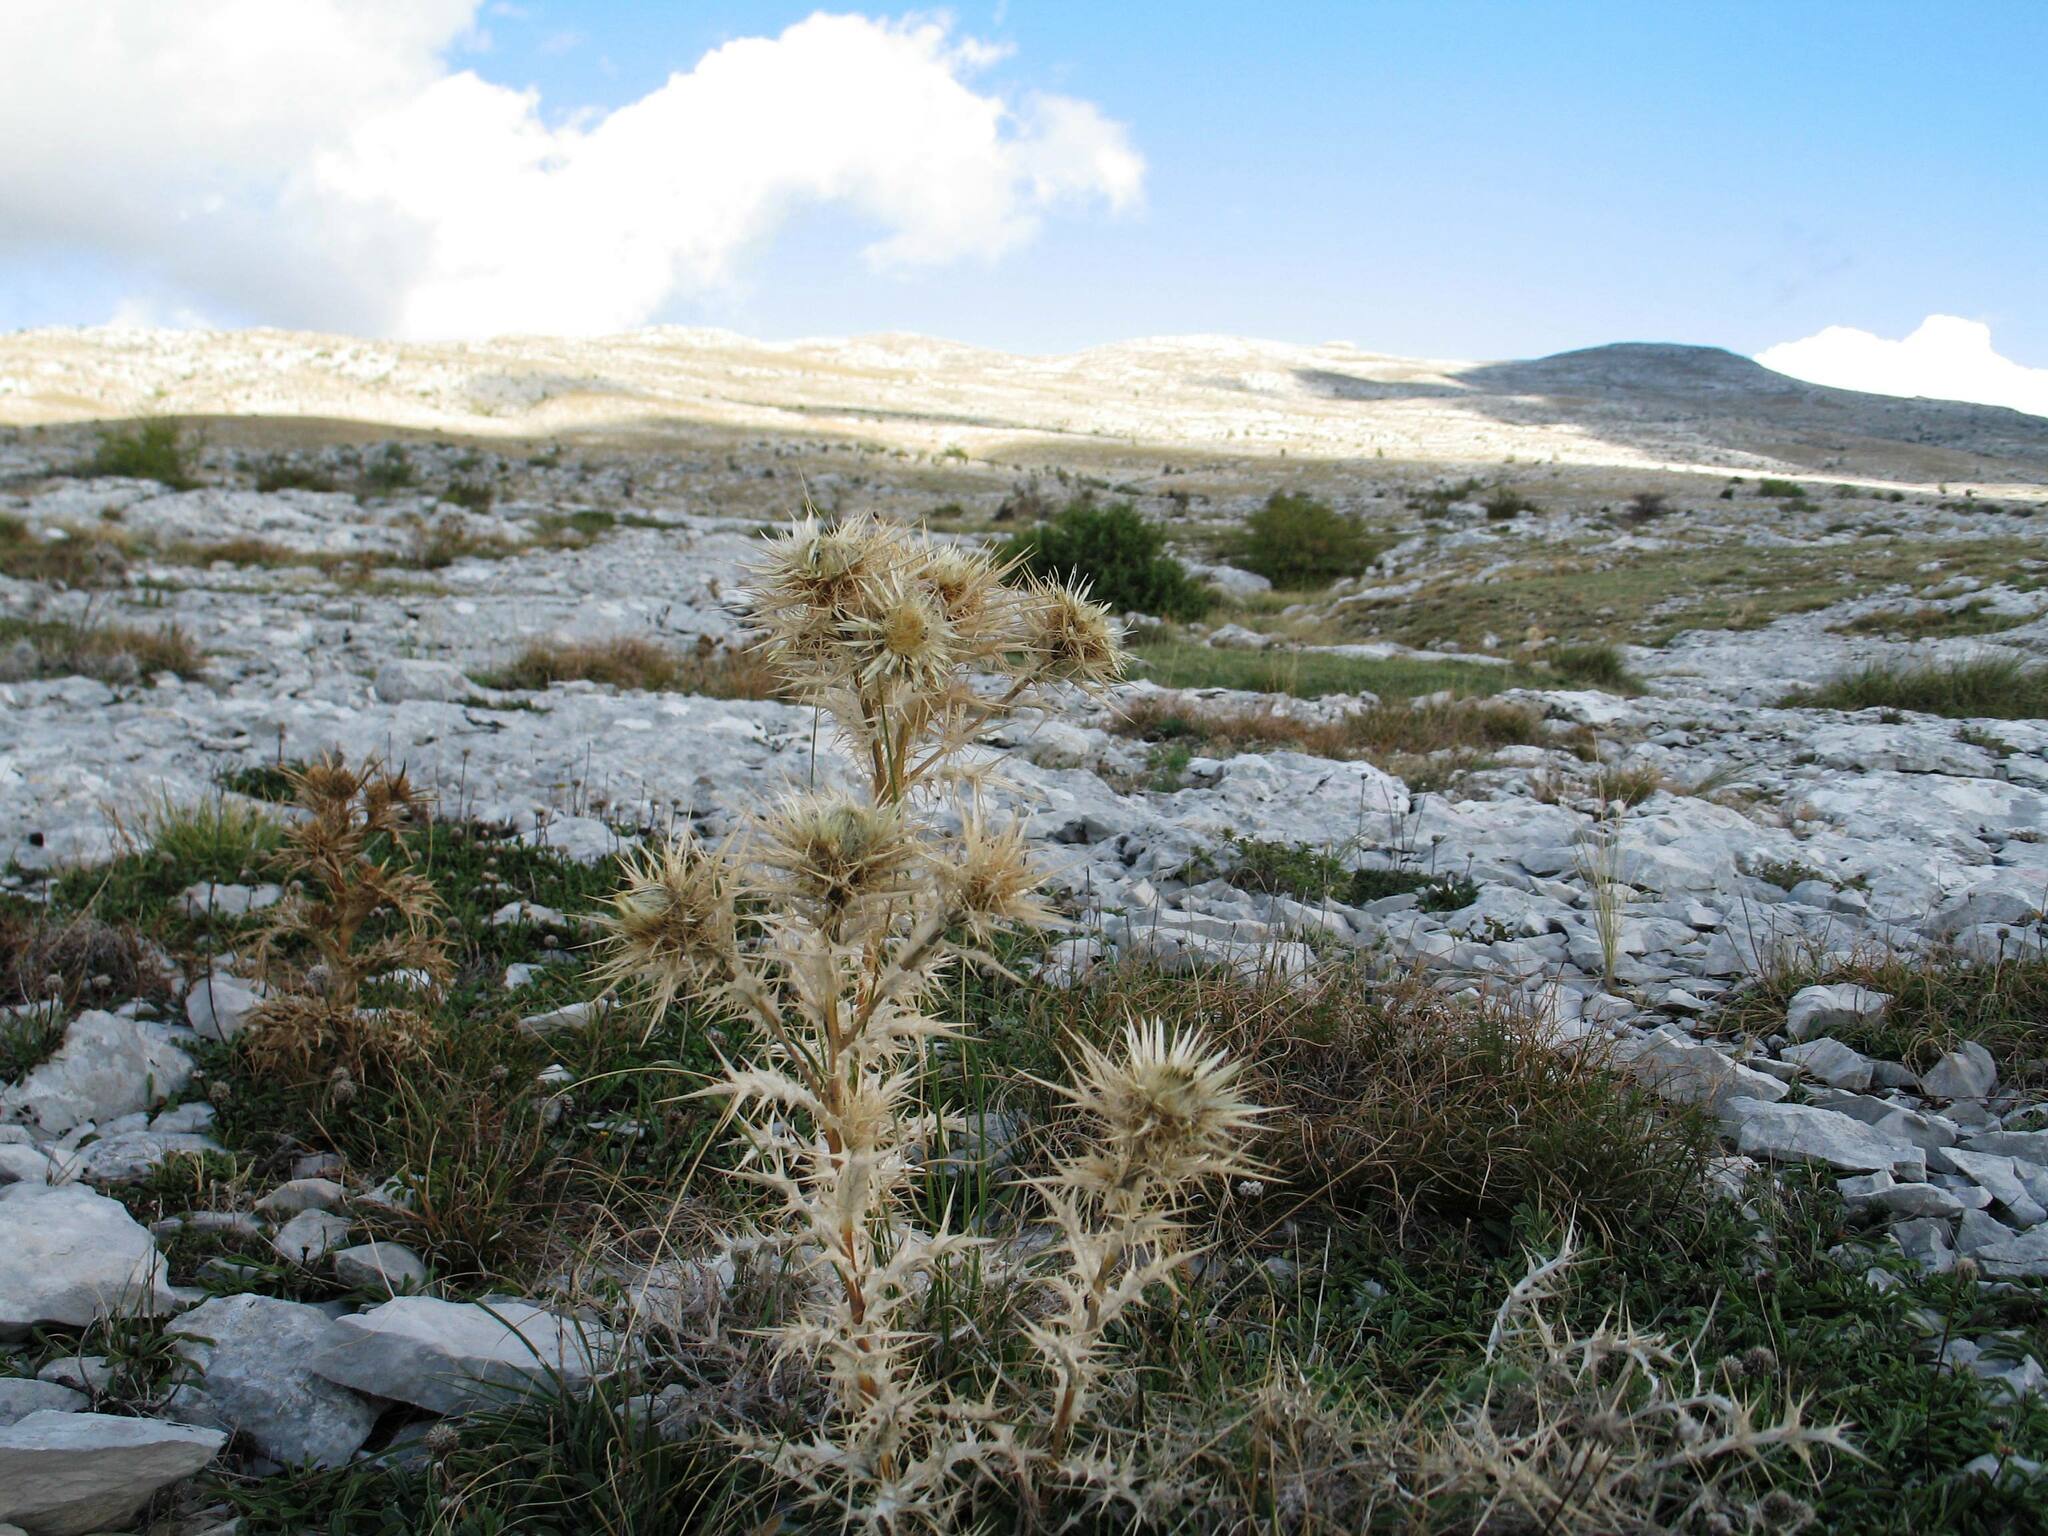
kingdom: Plantae
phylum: Tracheophyta
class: Magnoliopsida
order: Asterales
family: Asteraceae
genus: Carlina
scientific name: Carlina corymbosa
